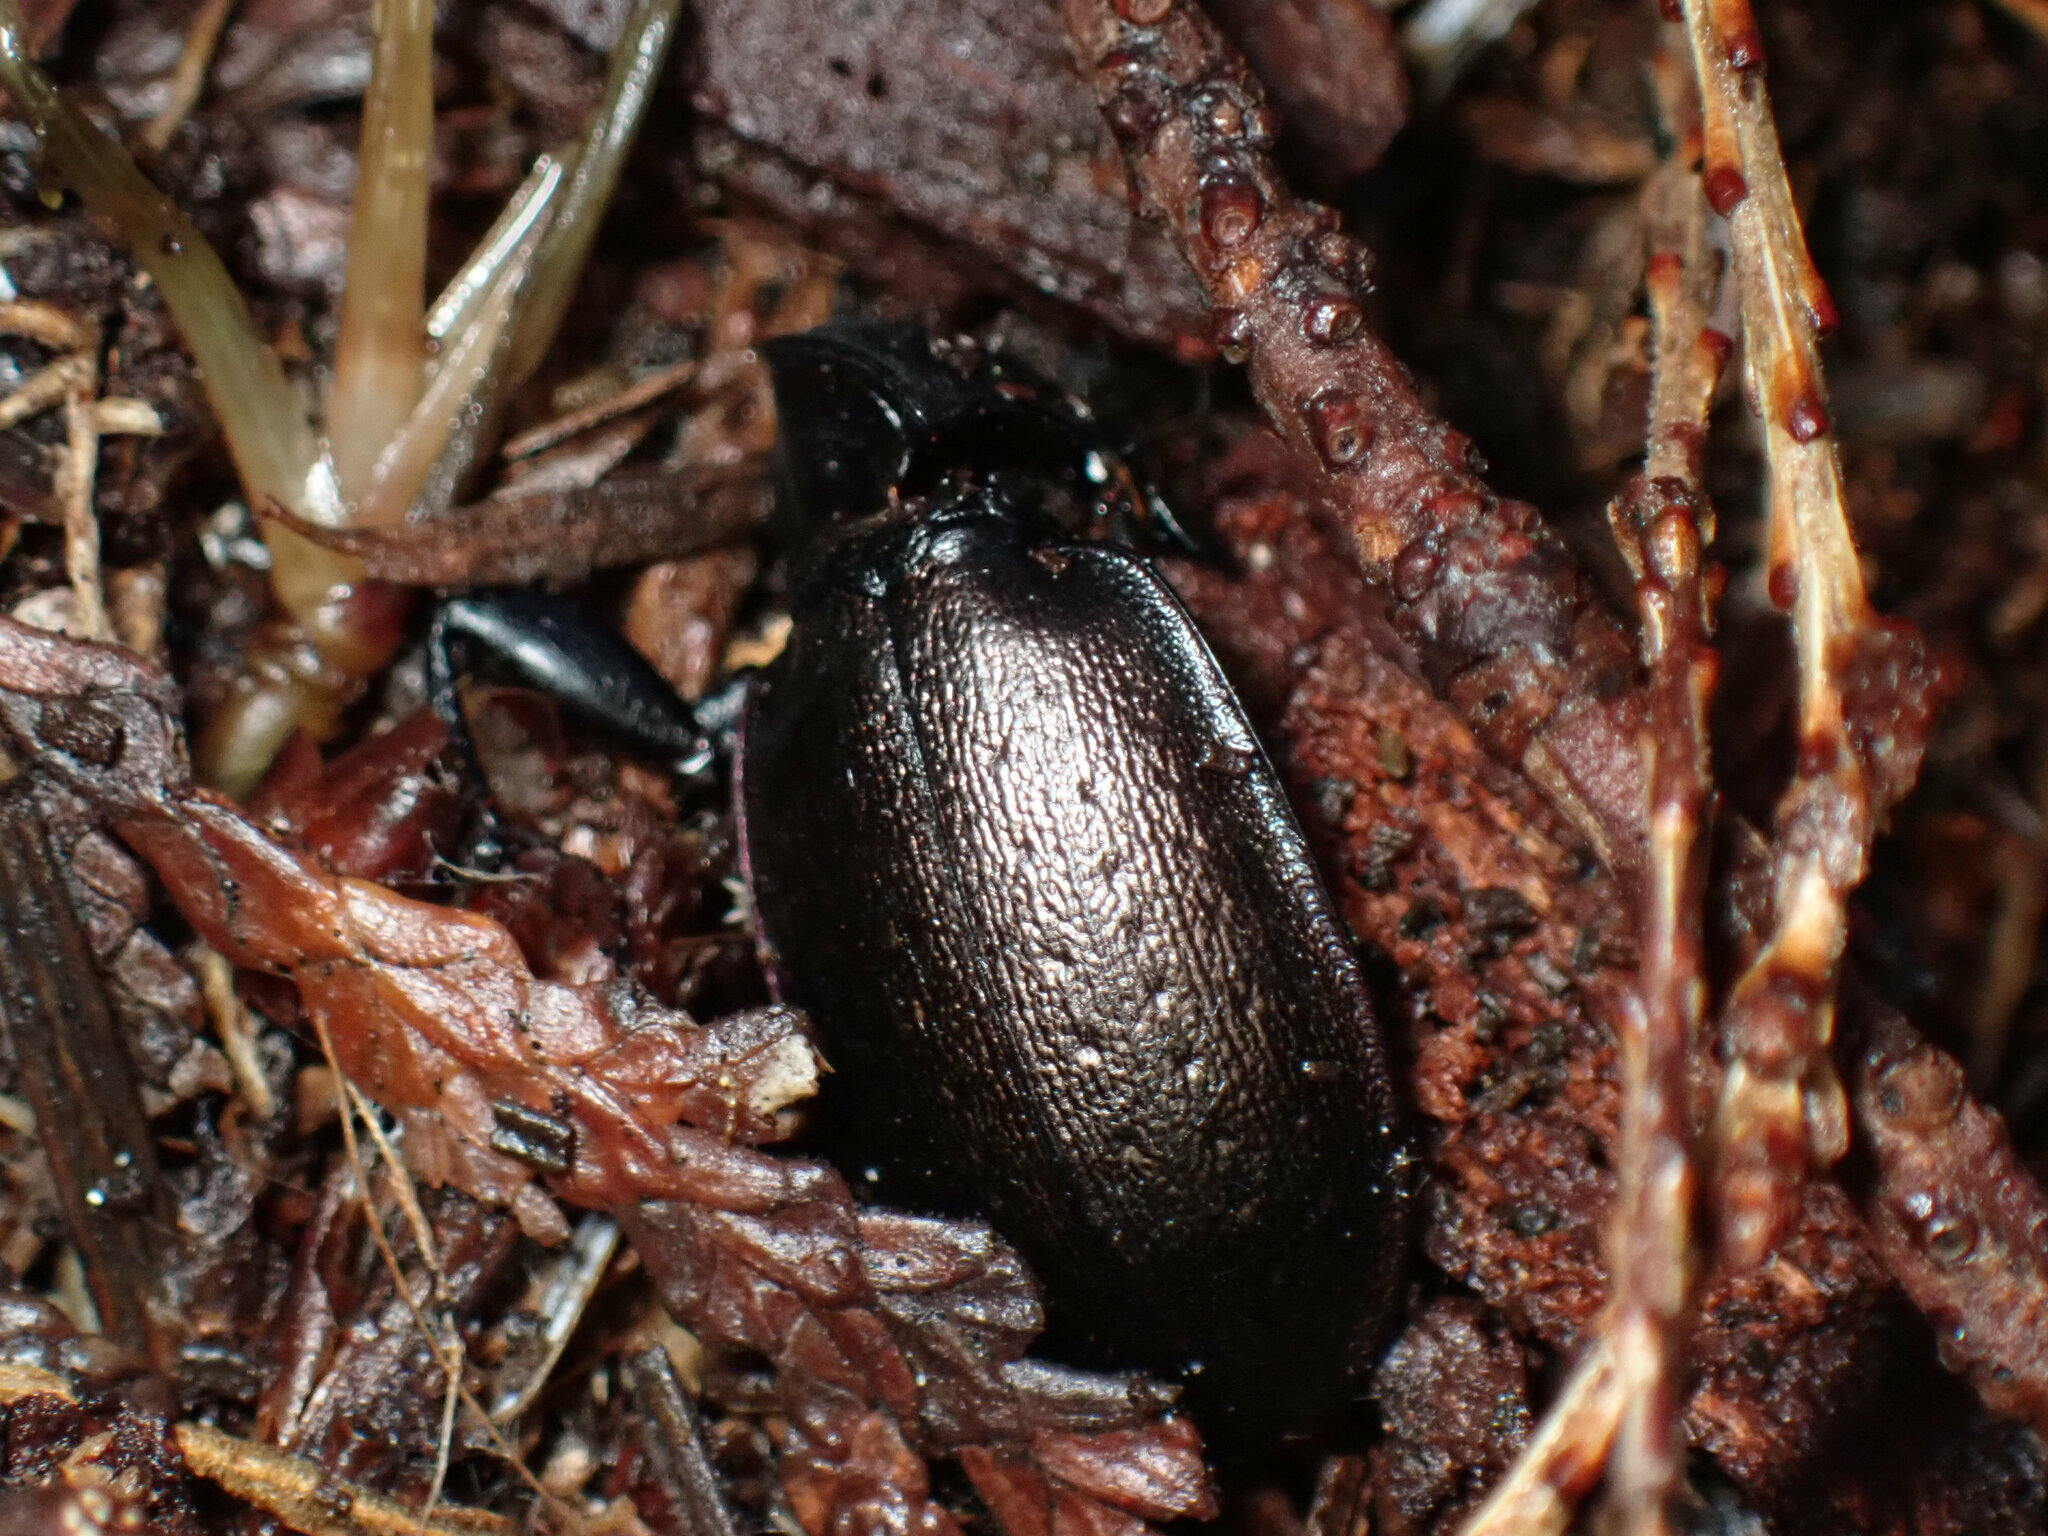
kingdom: Animalia
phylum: Arthropoda
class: Insecta
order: Coleoptera
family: Carabidae
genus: Carabus
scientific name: Carabus nemoralis
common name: European ground beetle
